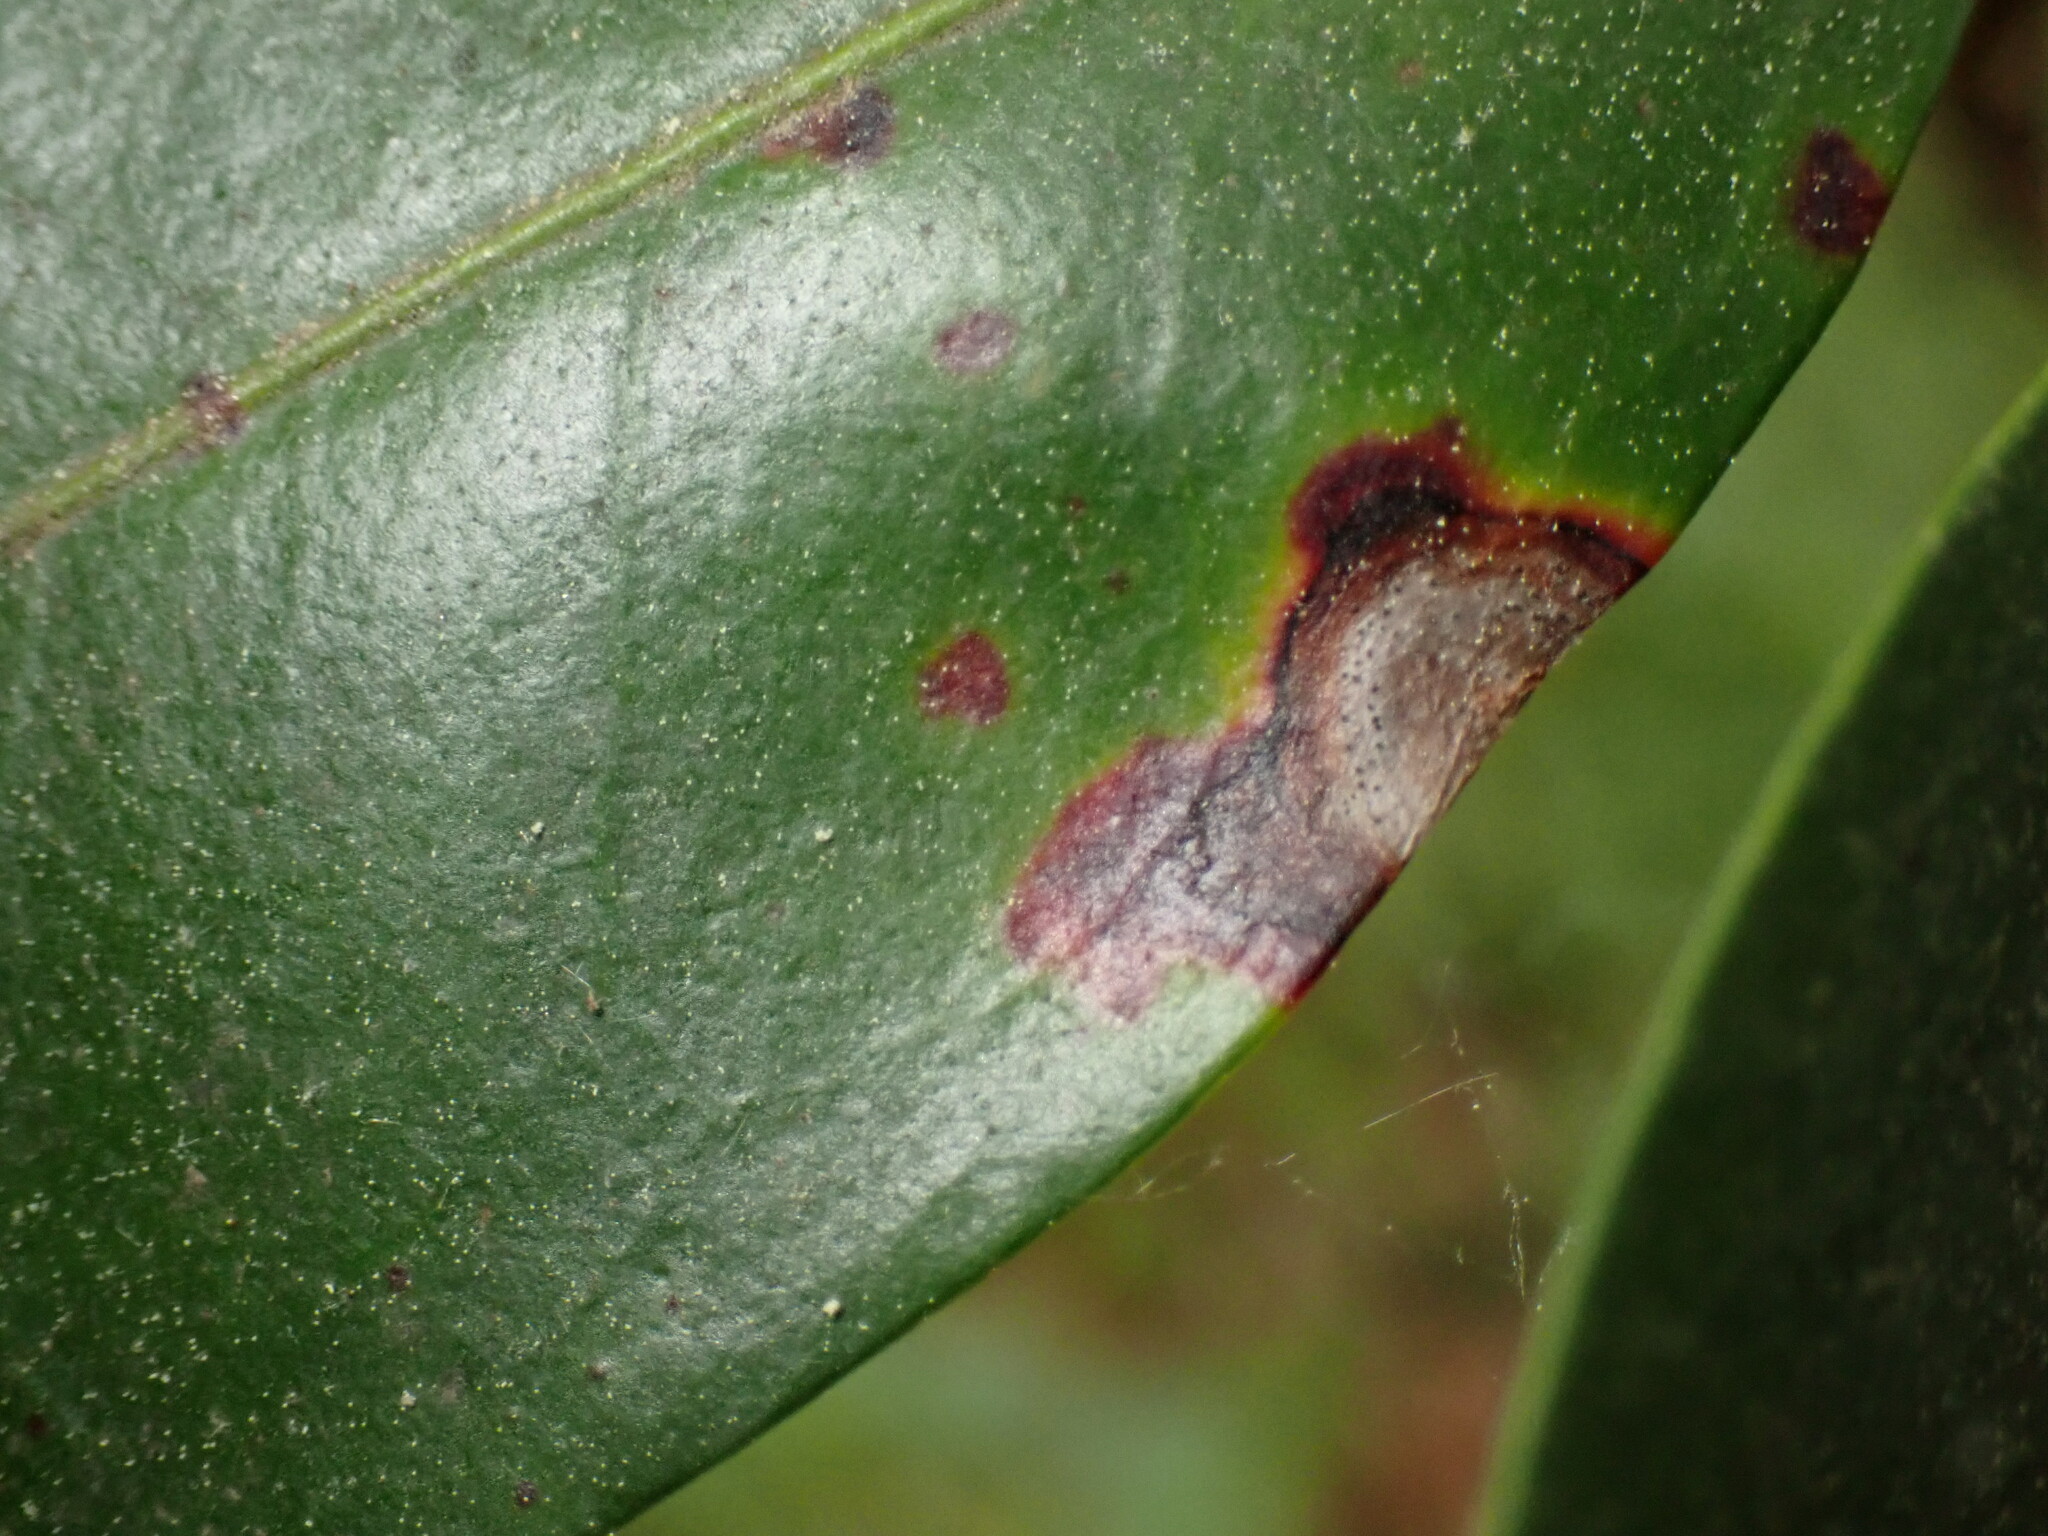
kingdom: Fungi
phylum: Ascomycota
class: Dothideomycetes
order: Mycosphaerellales
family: Mycosphaerellaceae
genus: Mycosphaerella
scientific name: Mycosphaerella colorata
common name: Mountain laurel leaf spot
